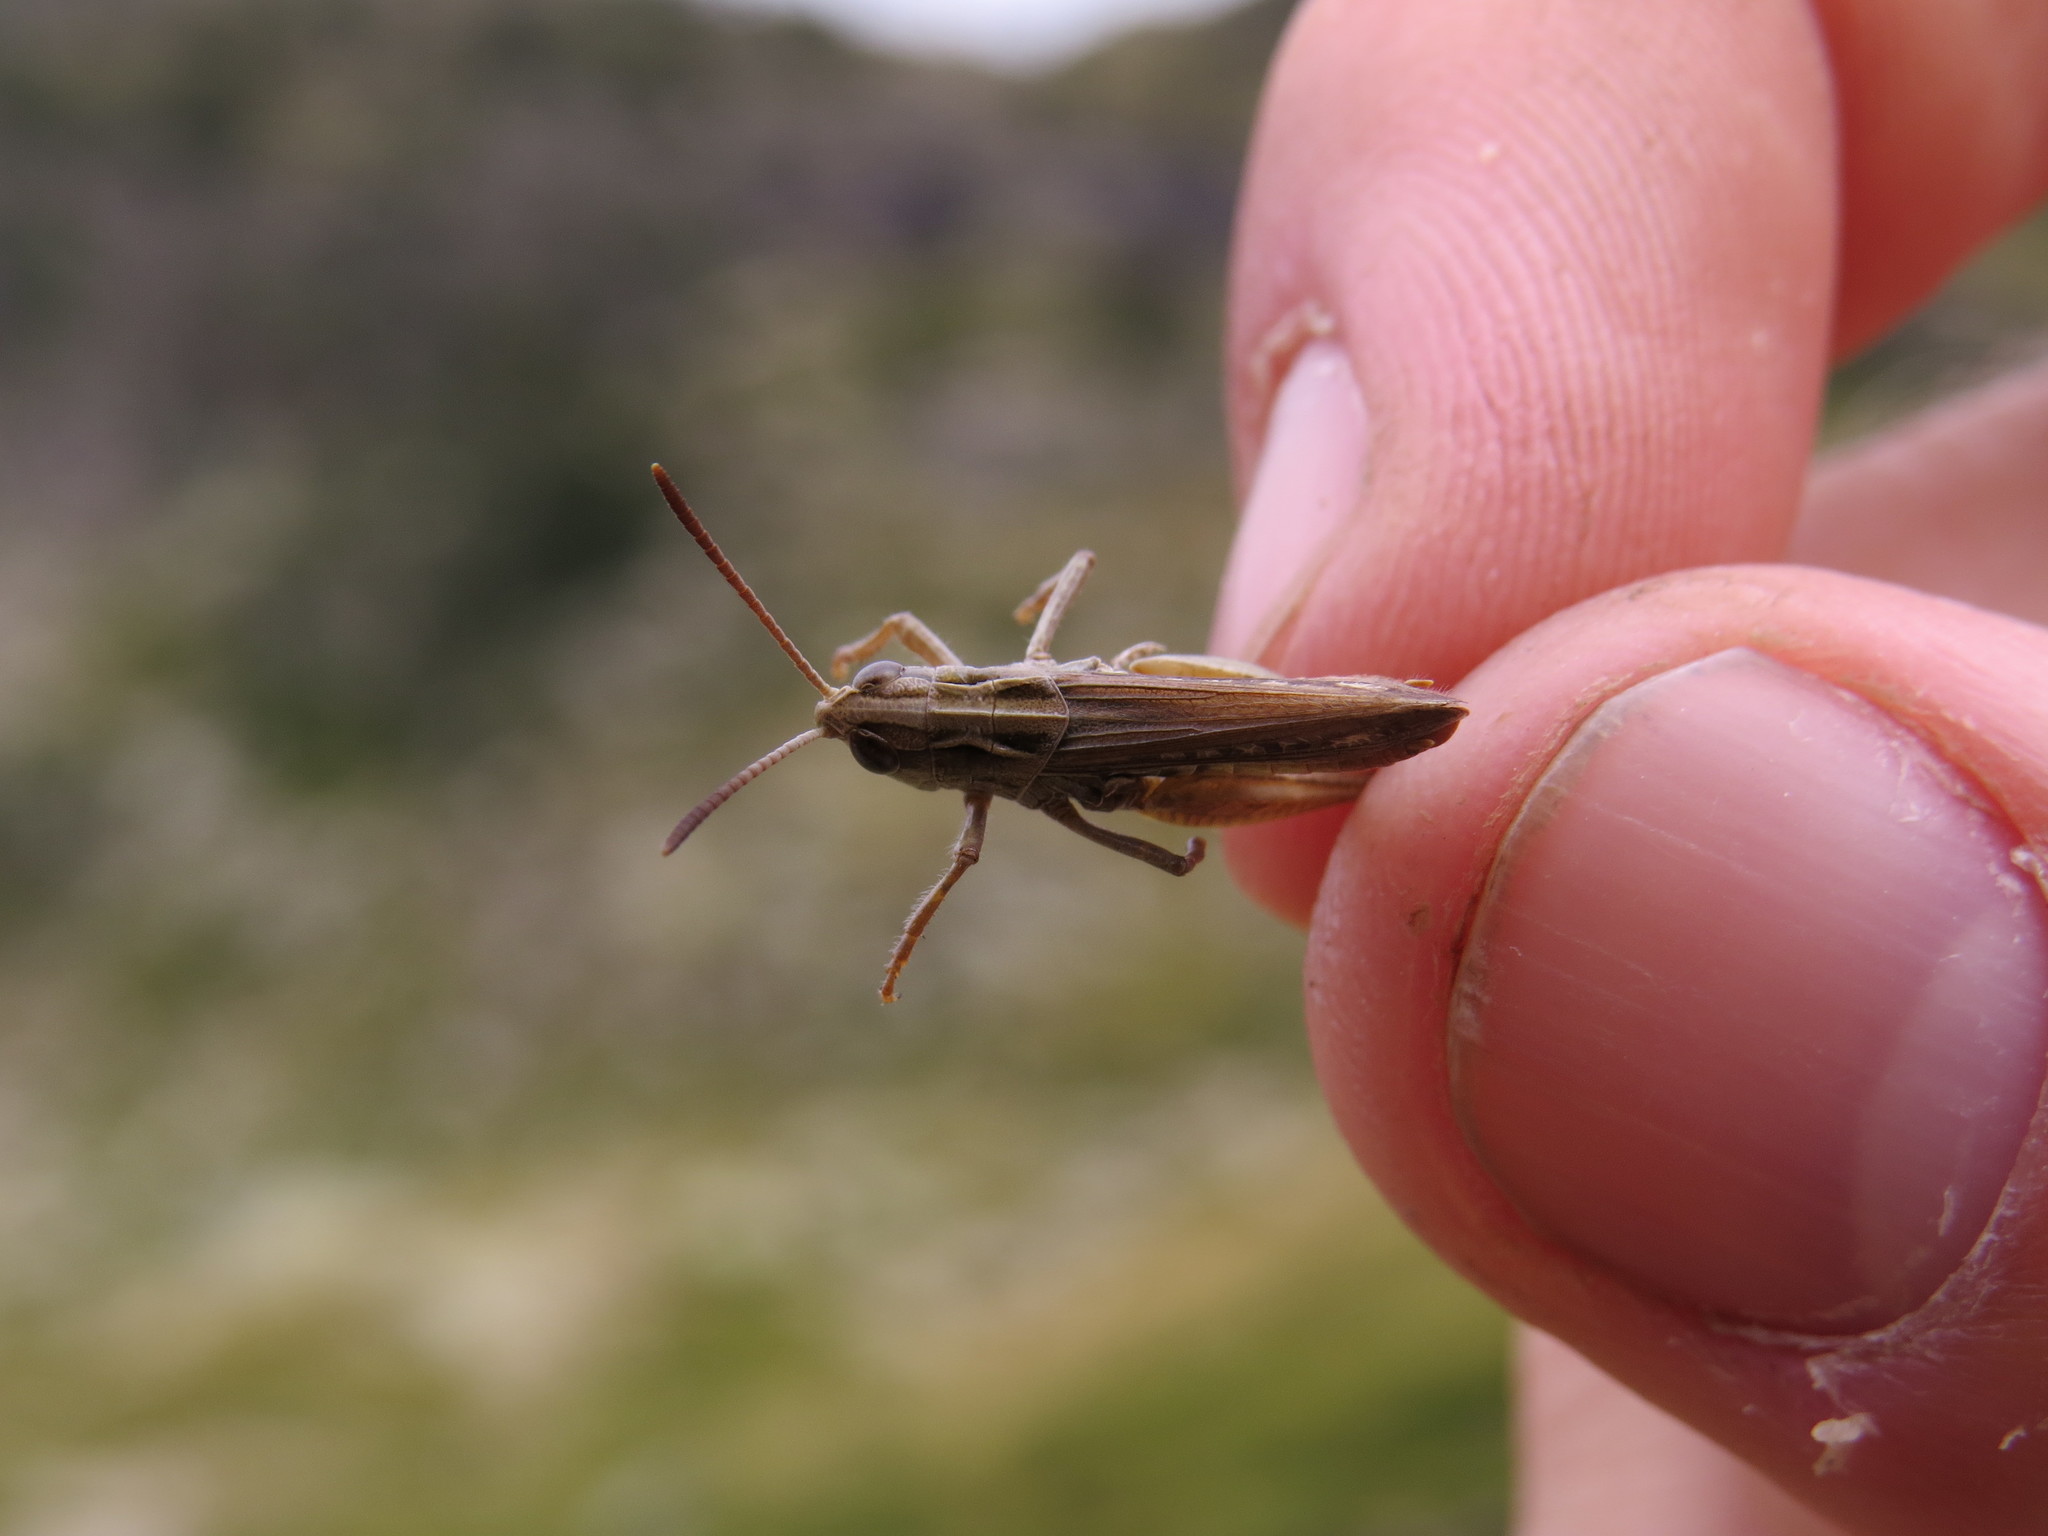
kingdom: Animalia
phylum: Arthropoda
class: Insecta
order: Orthoptera
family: Acrididae
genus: Stenobothrus
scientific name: Stenobothrus stigmaticus
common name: Lesser mottled grasshopper
